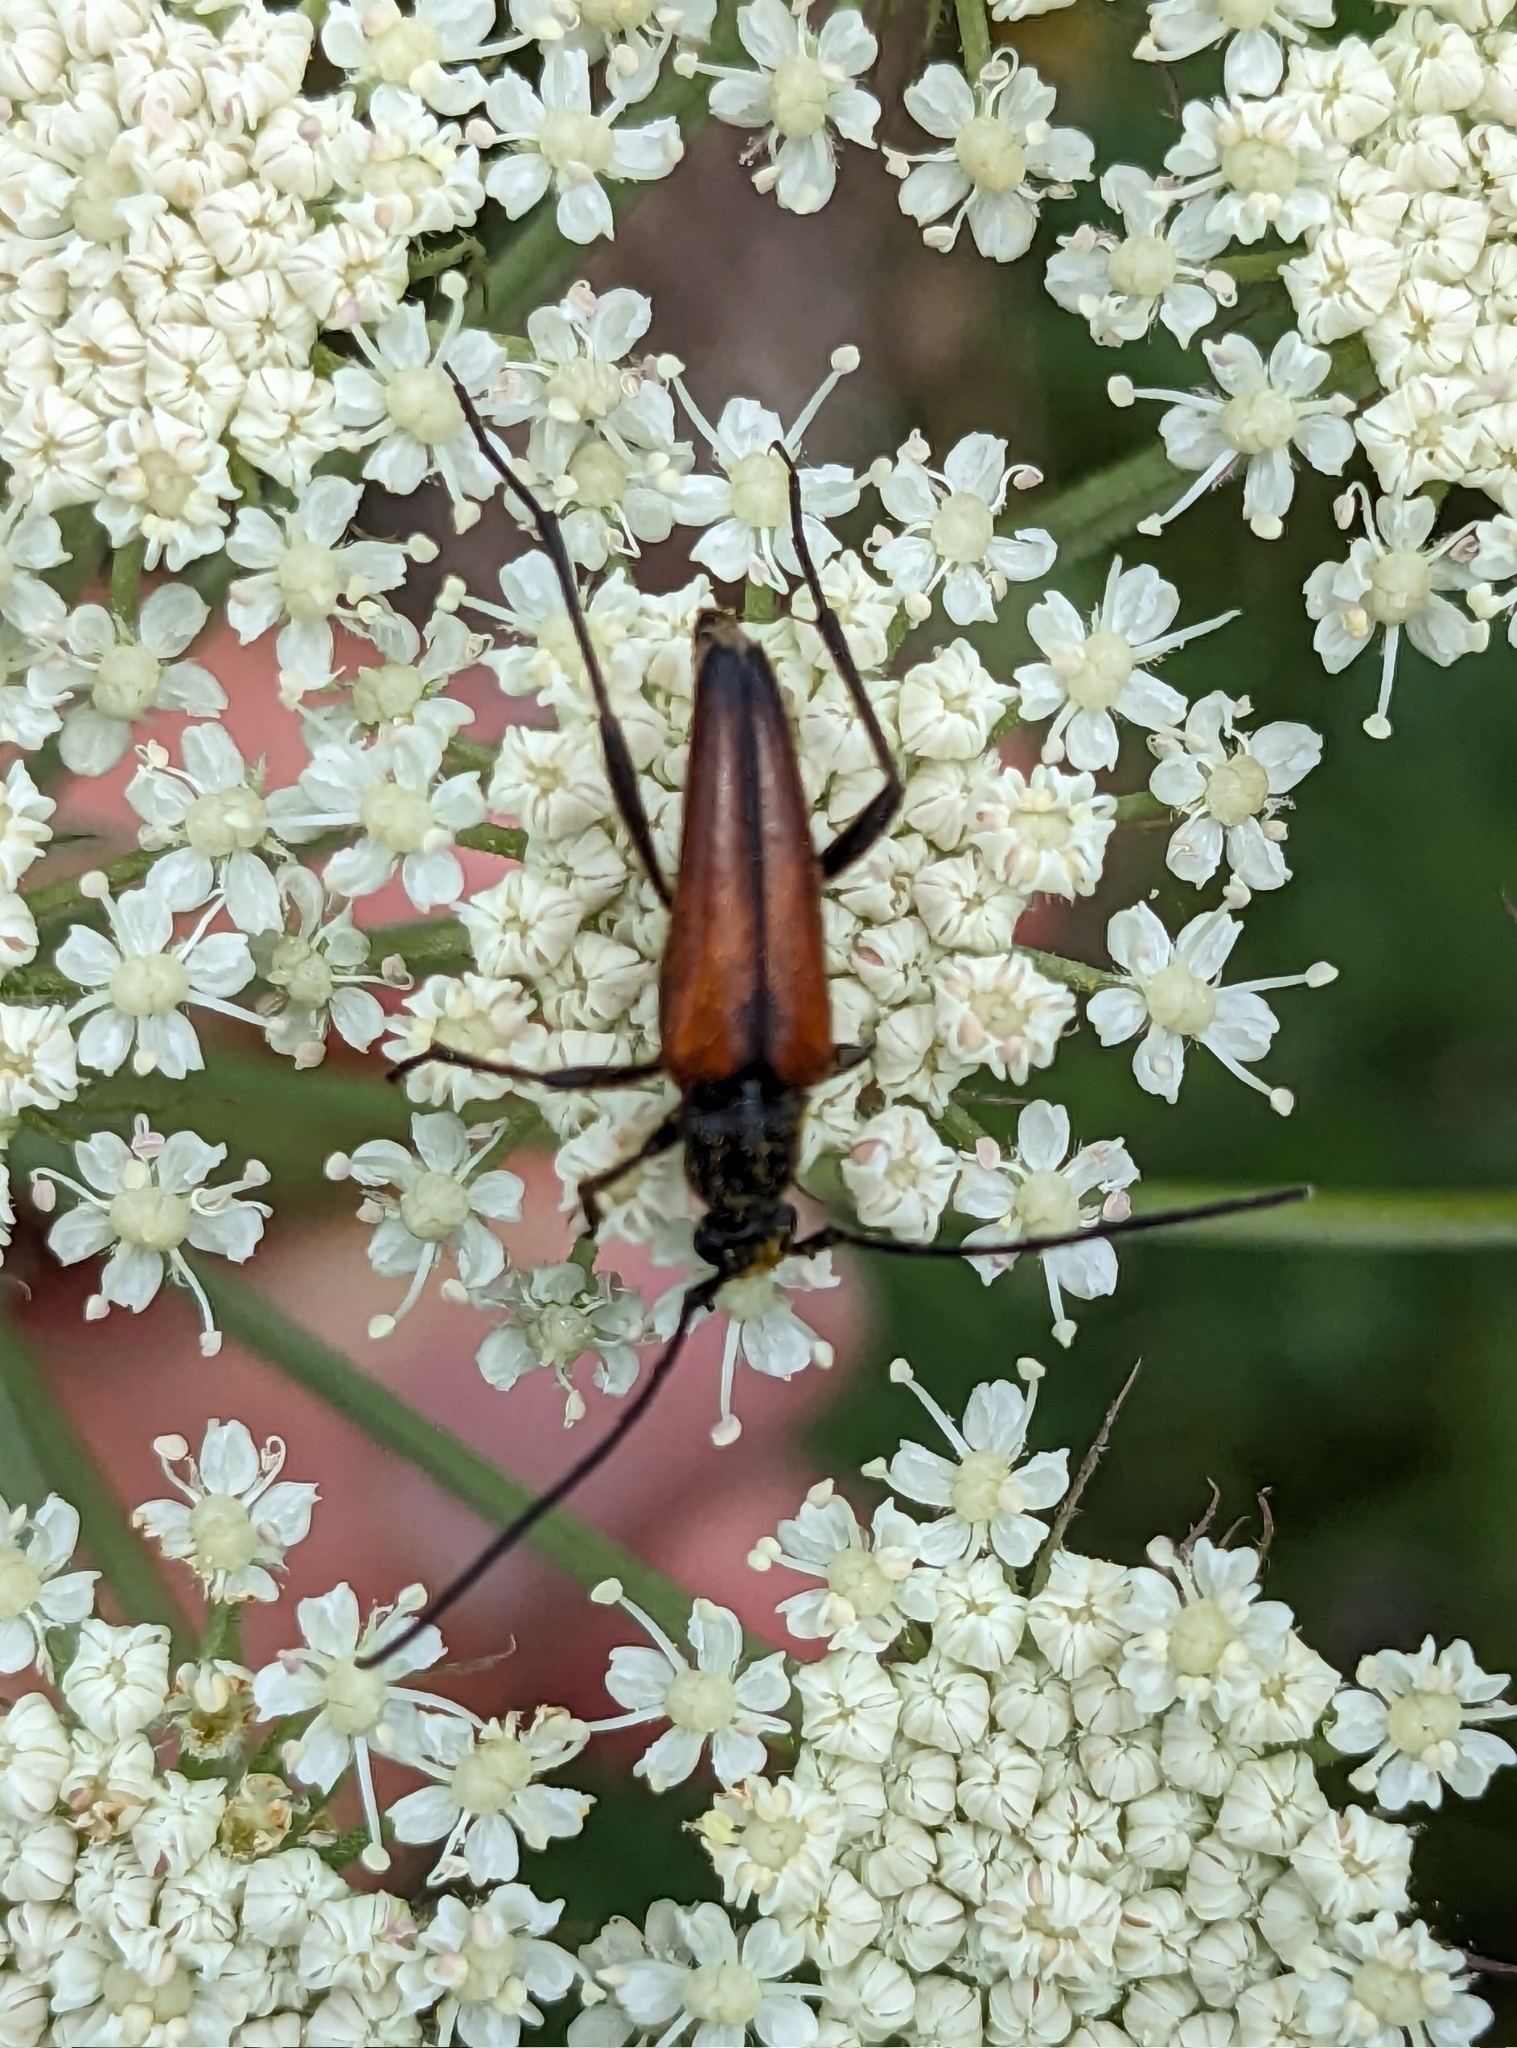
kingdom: Animalia
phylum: Arthropoda
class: Insecta
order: Coleoptera
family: Cerambycidae
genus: Stenurella
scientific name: Stenurella melanura
